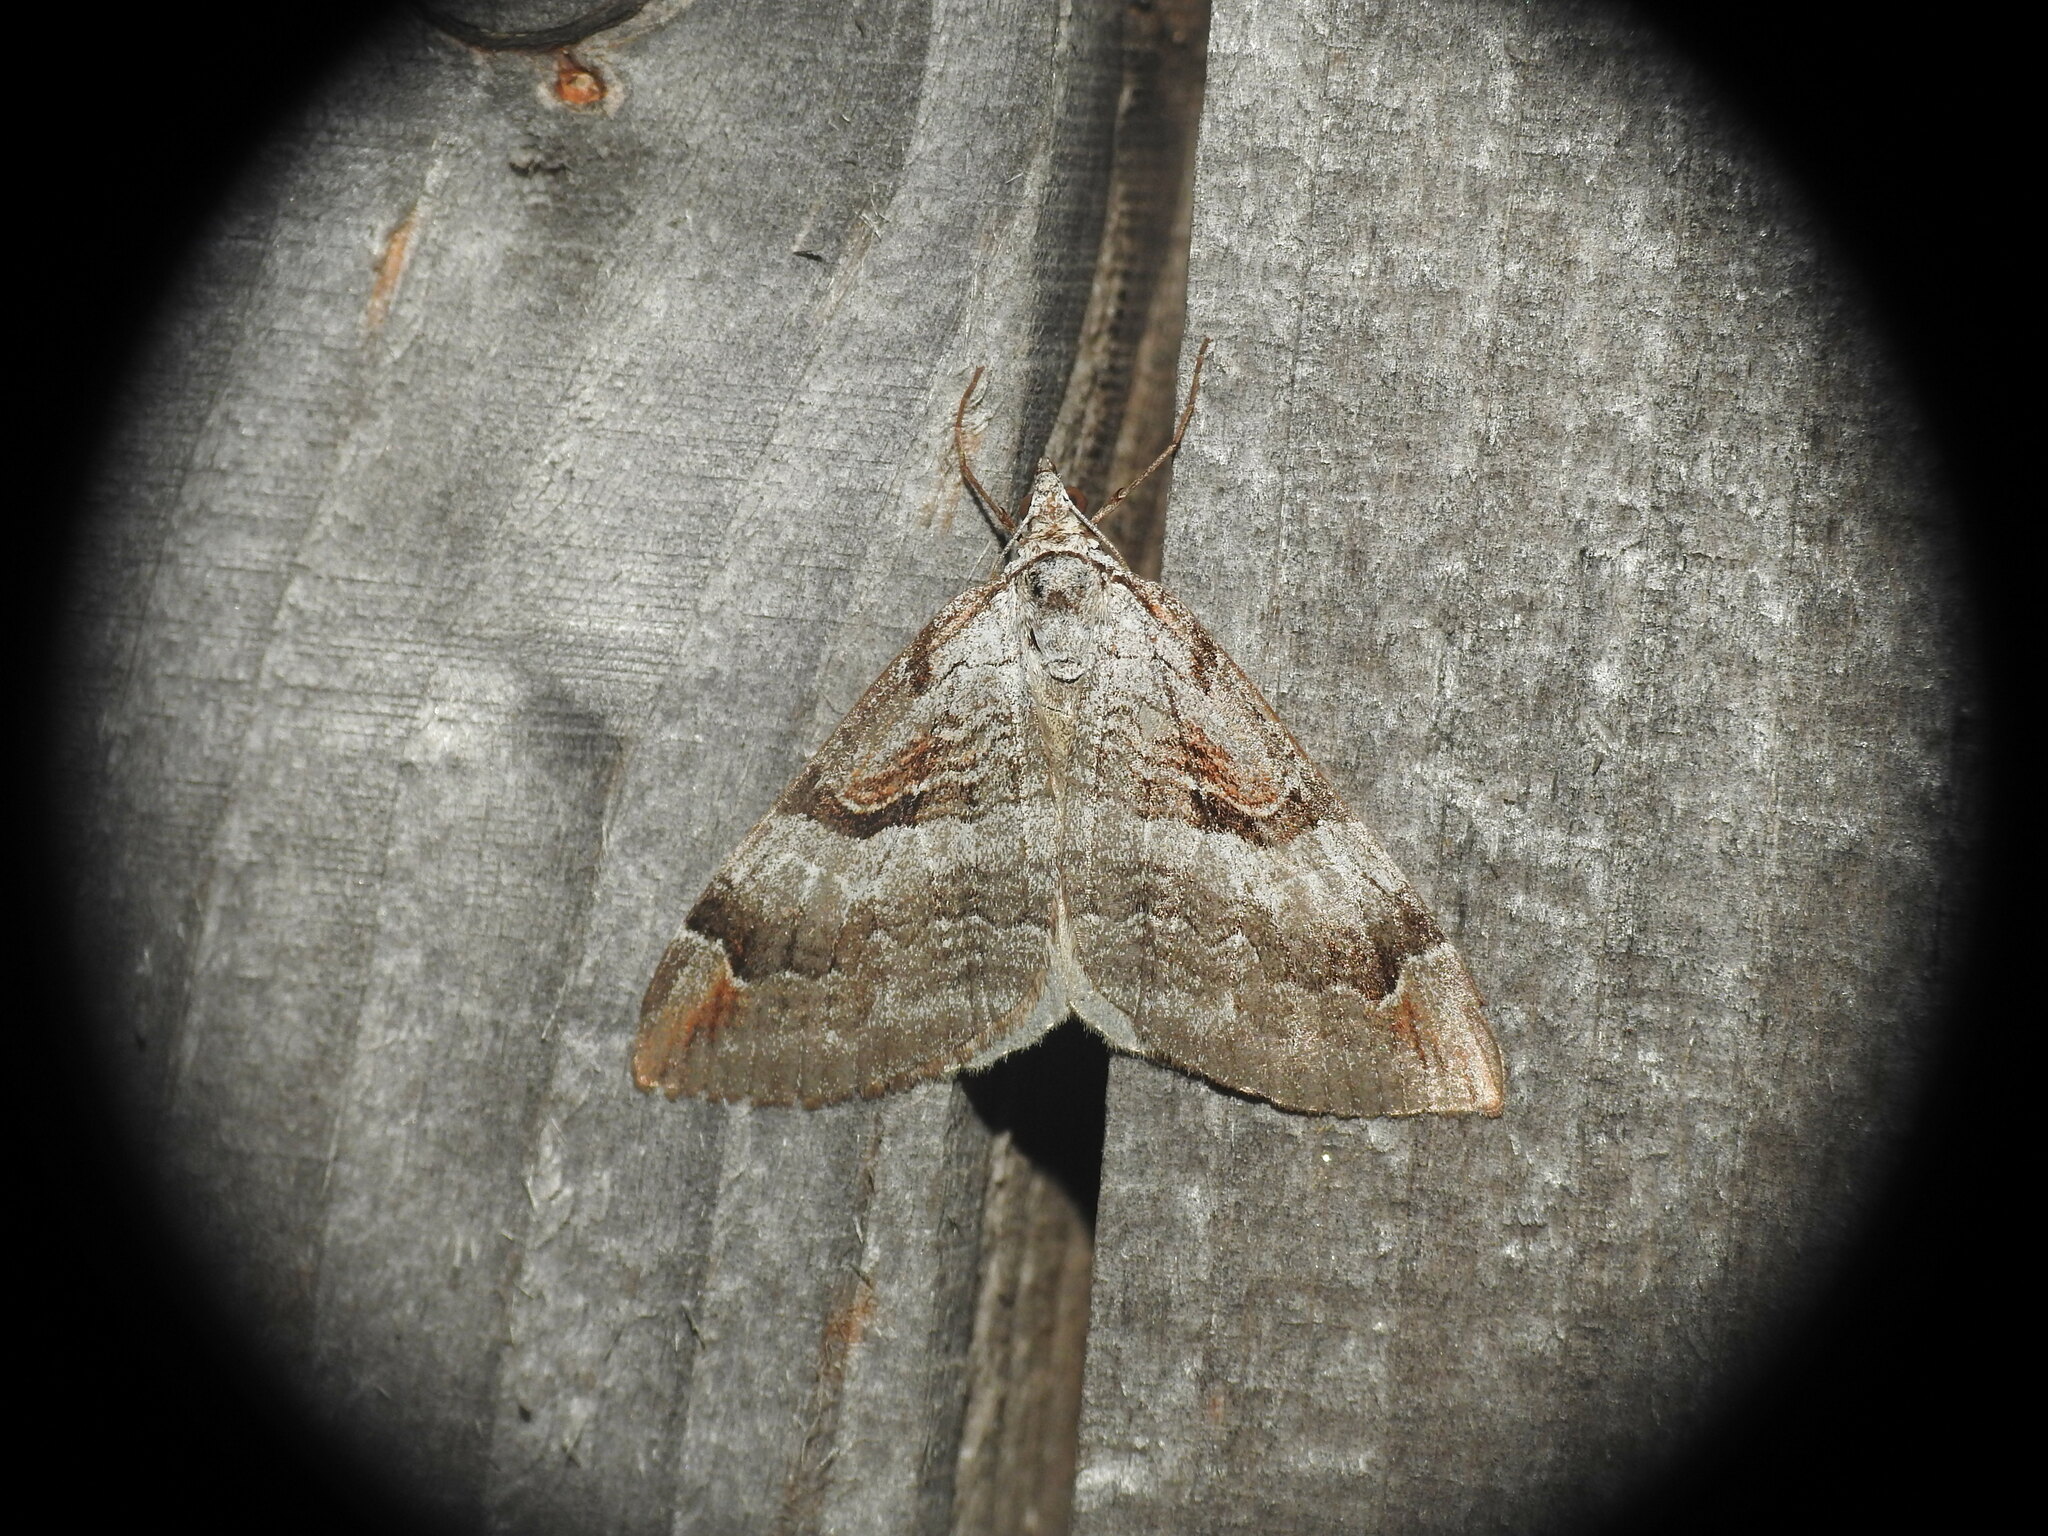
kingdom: Animalia
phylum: Arthropoda
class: Insecta
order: Lepidoptera
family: Geometridae
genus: Aplocera
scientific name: Aplocera praeformata
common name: Purple treble-bar
